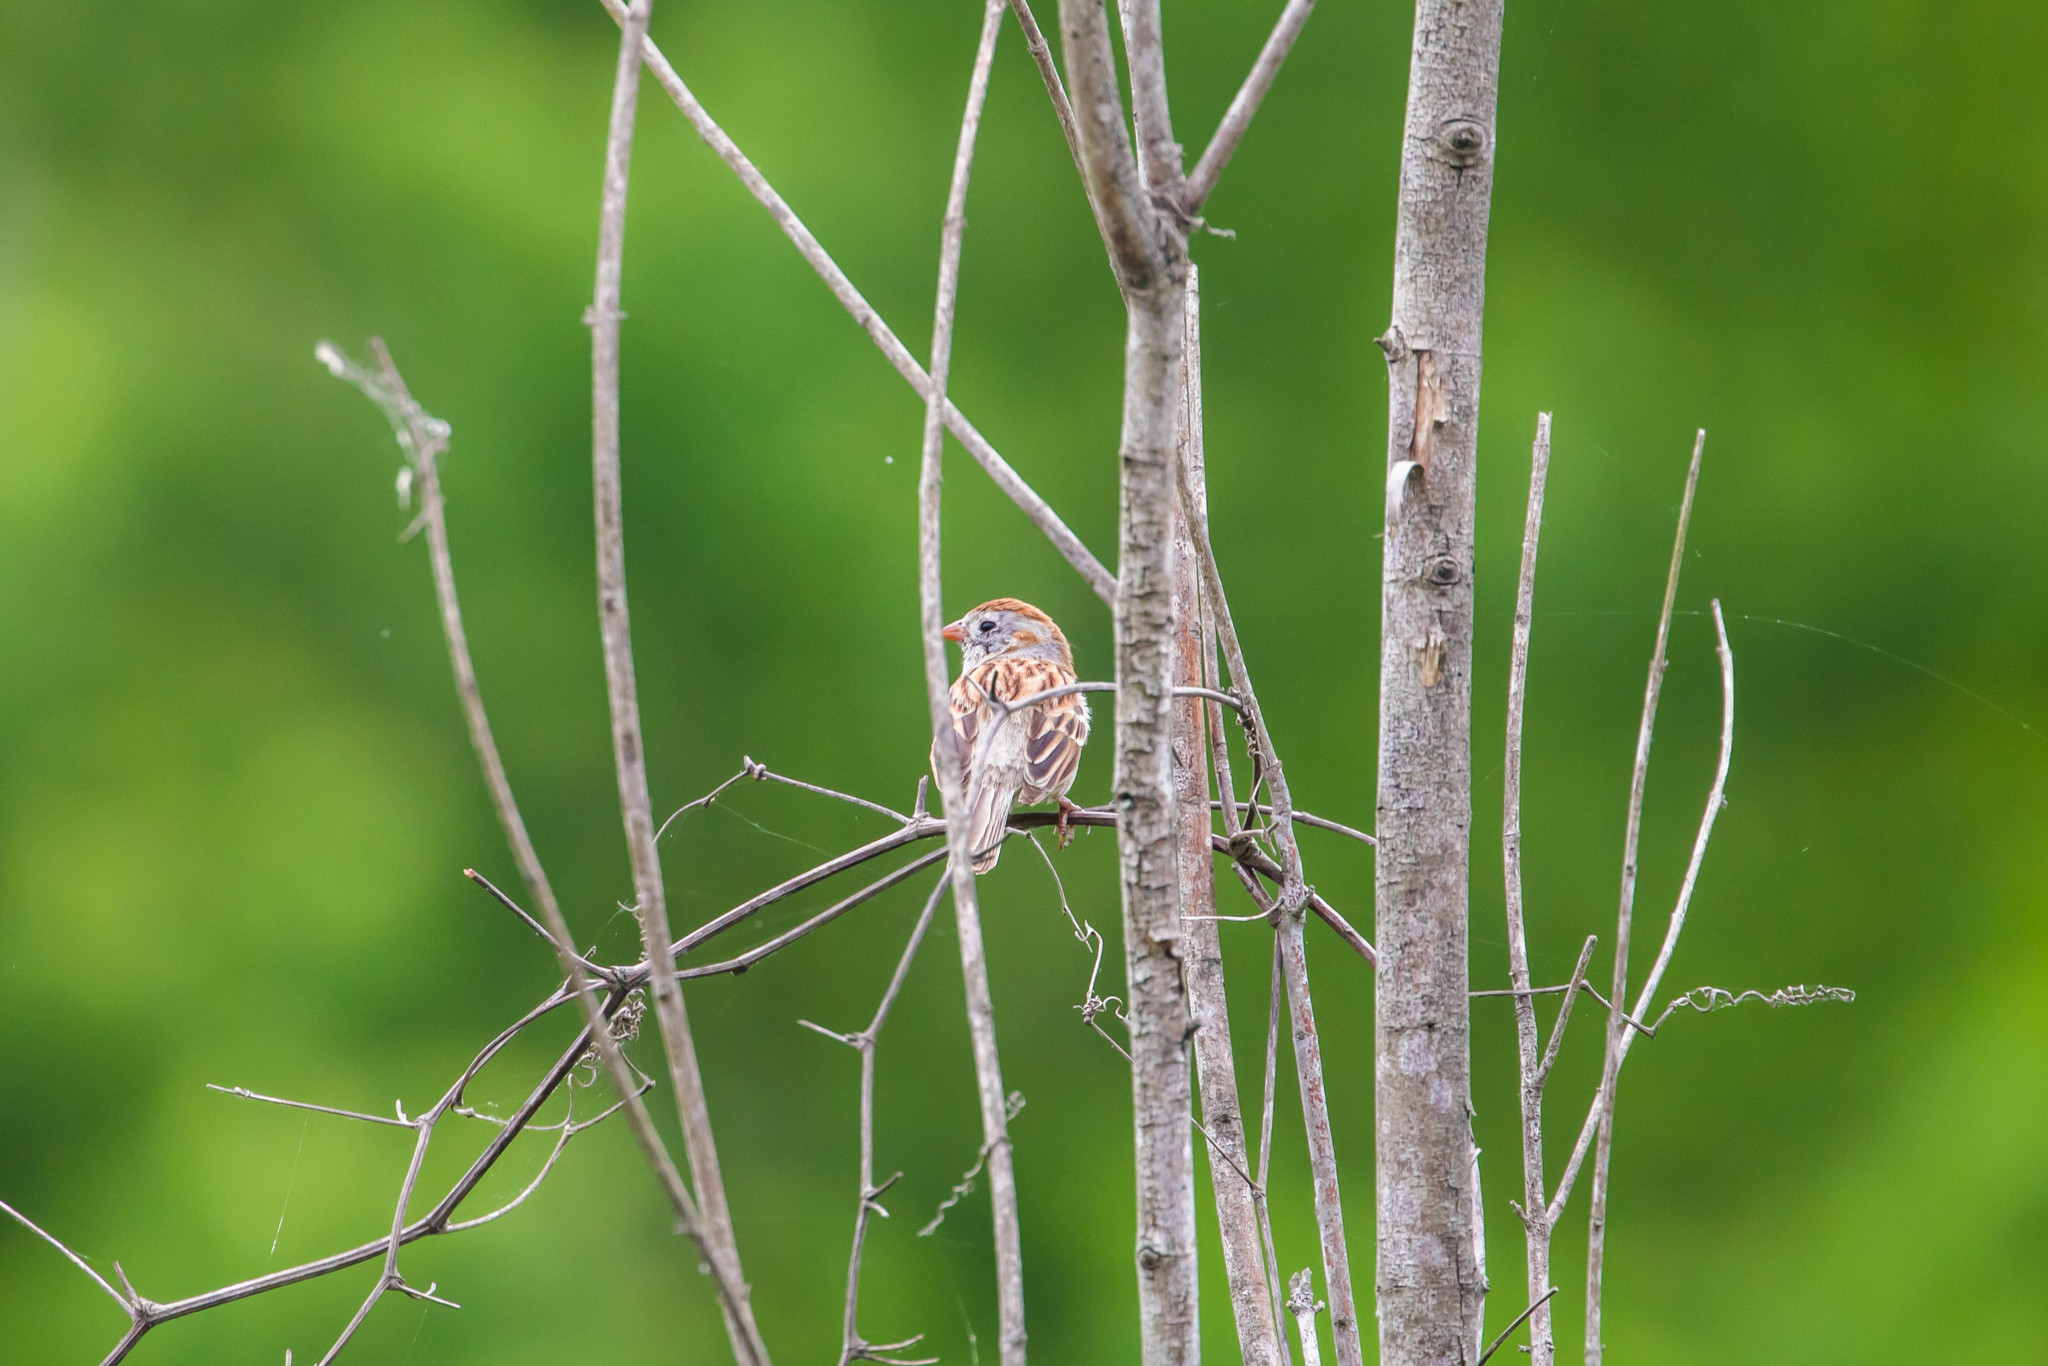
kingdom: Animalia
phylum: Chordata
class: Aves
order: Passeriformes
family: Passerellidae
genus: Spizella
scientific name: Spizella pusilla
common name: Field sparrow
